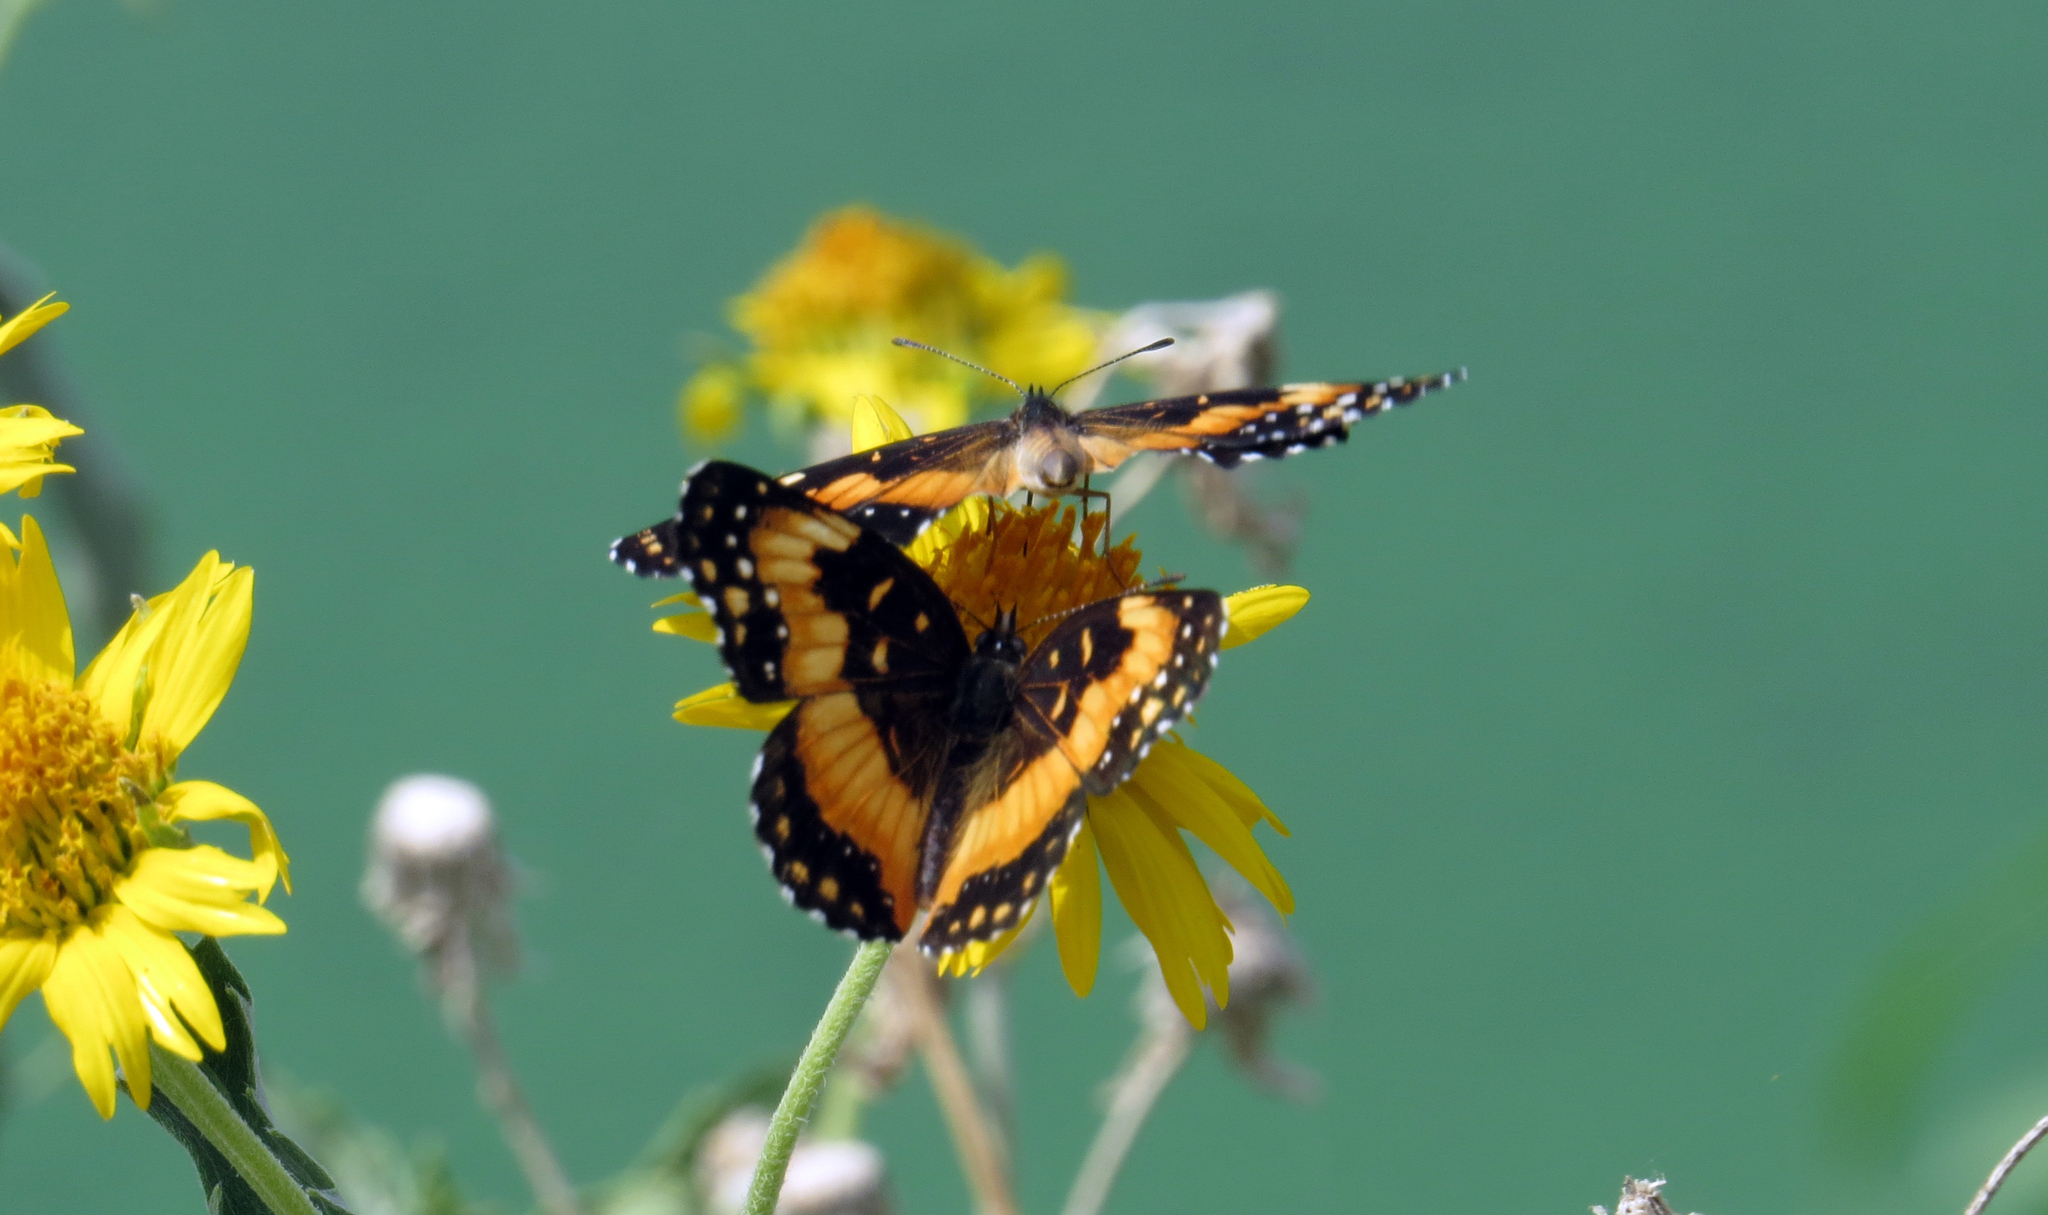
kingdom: Animalia
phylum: Arthropoda
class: Insecta
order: Lepidoptera
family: Nymphalidae
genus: Chlosyne
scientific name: Chlosyne lacinia
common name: Bordered patch
